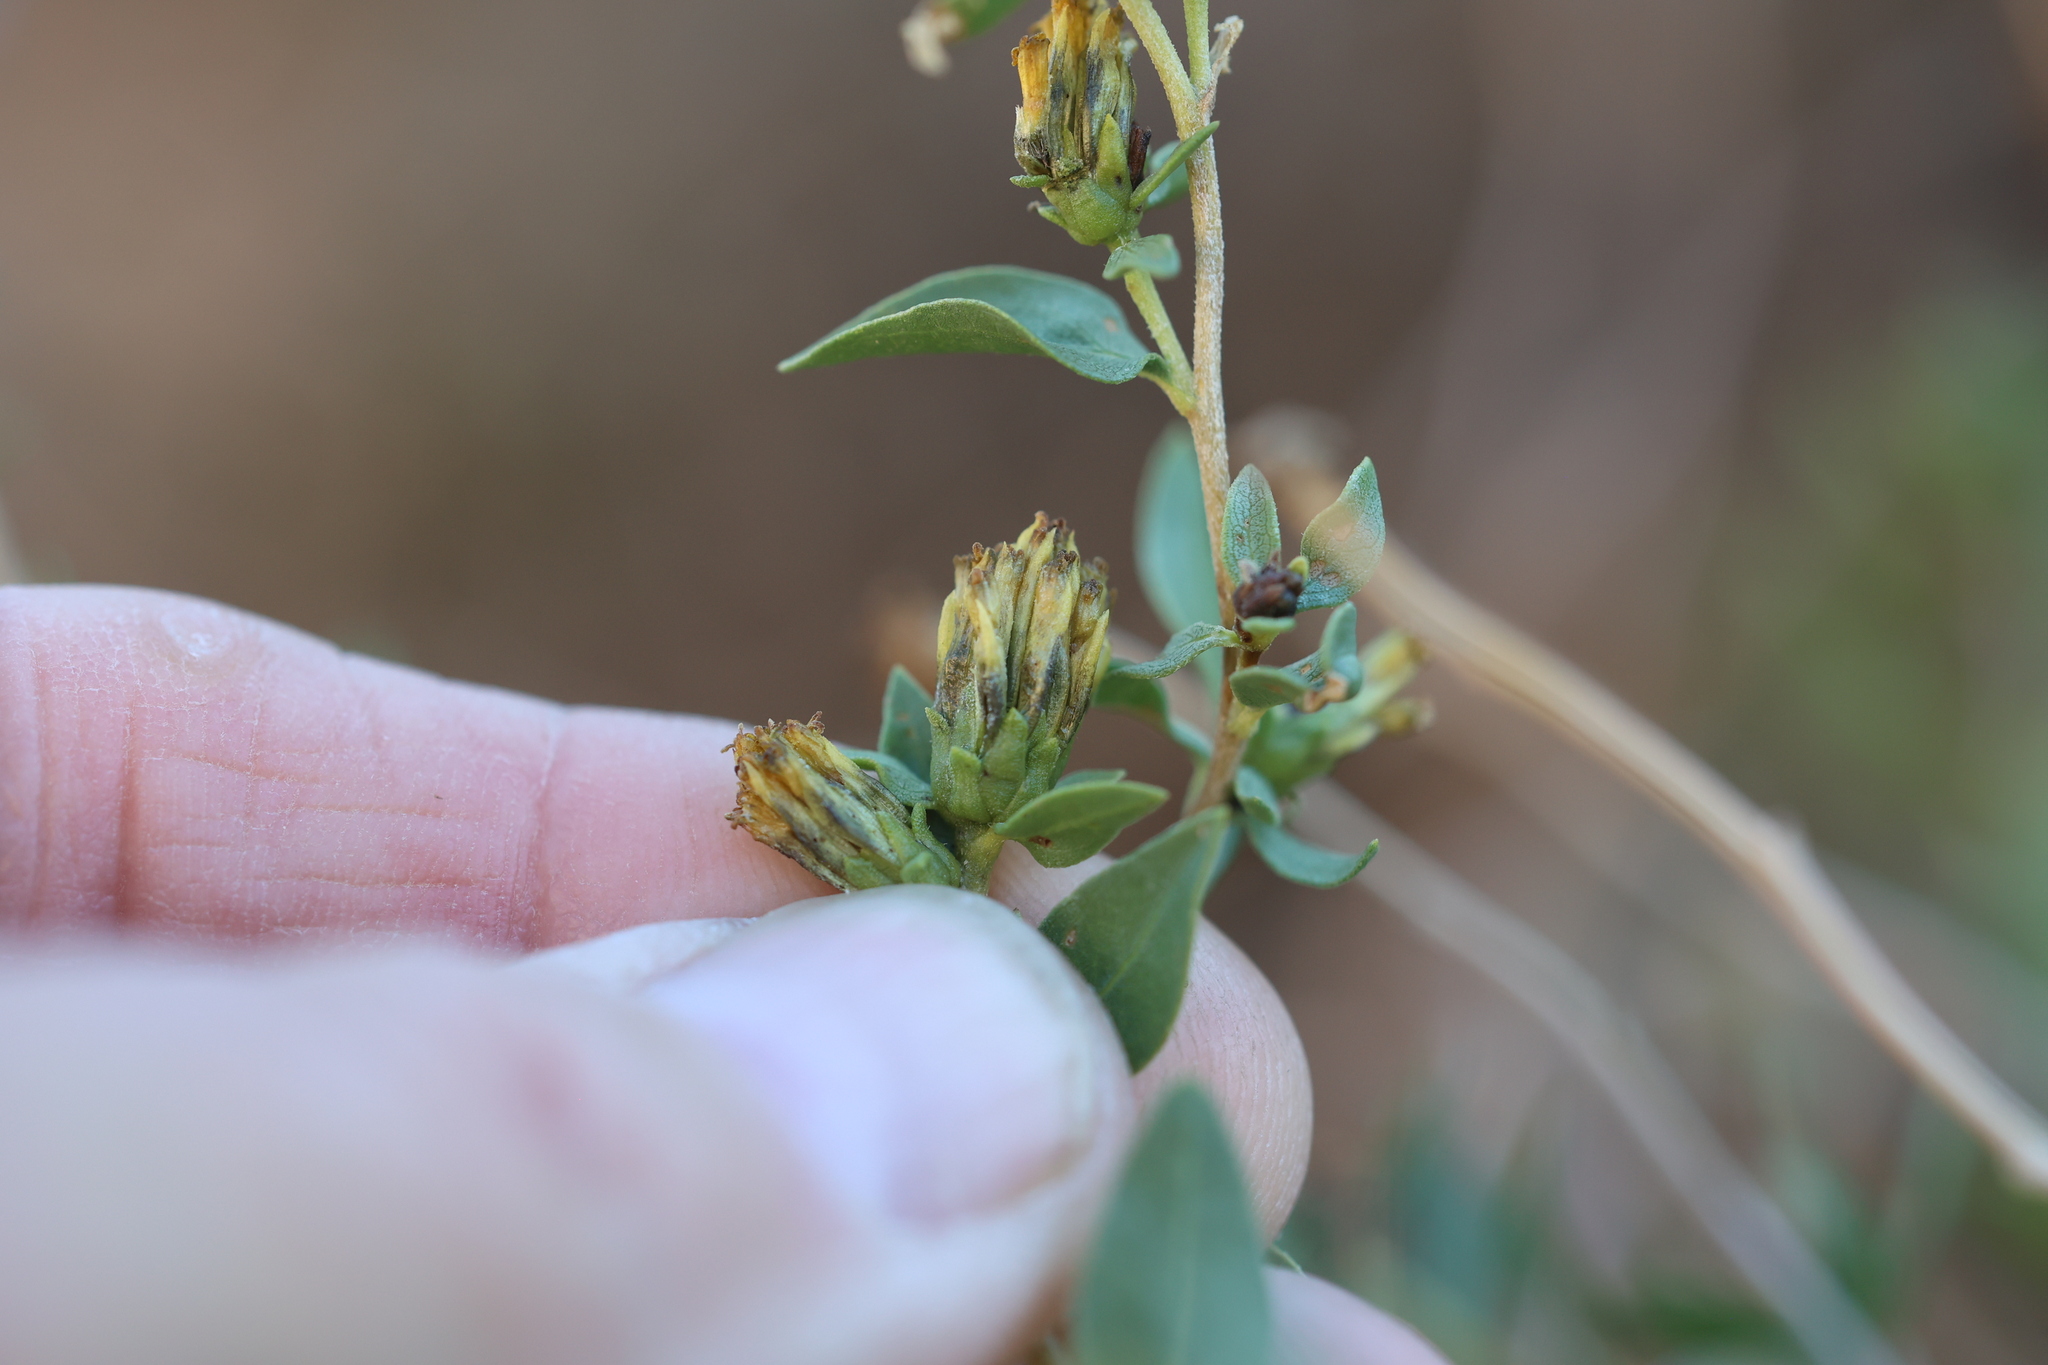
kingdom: Plantae
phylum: Tracheophyta
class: Magnoliopsida
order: Asterales
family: Asteraceae
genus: Flourensia
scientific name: Flourensia cernua
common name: Varnishbush
